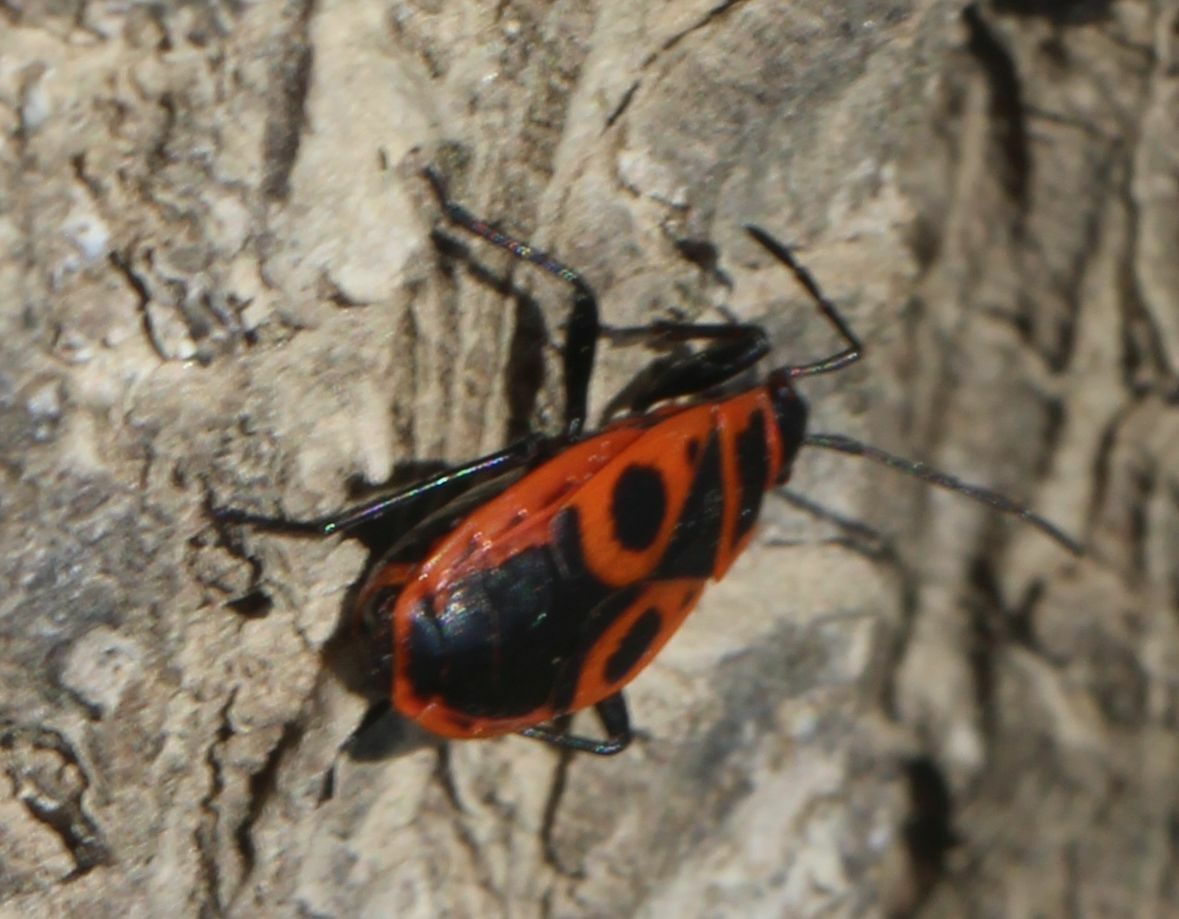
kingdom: Animalia
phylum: Arthropoda
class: Insecta
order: Hemiptera
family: Pyrrhocoridae
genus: Pyrrhocoris
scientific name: Pyrrhocoris apterus
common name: Firebug
